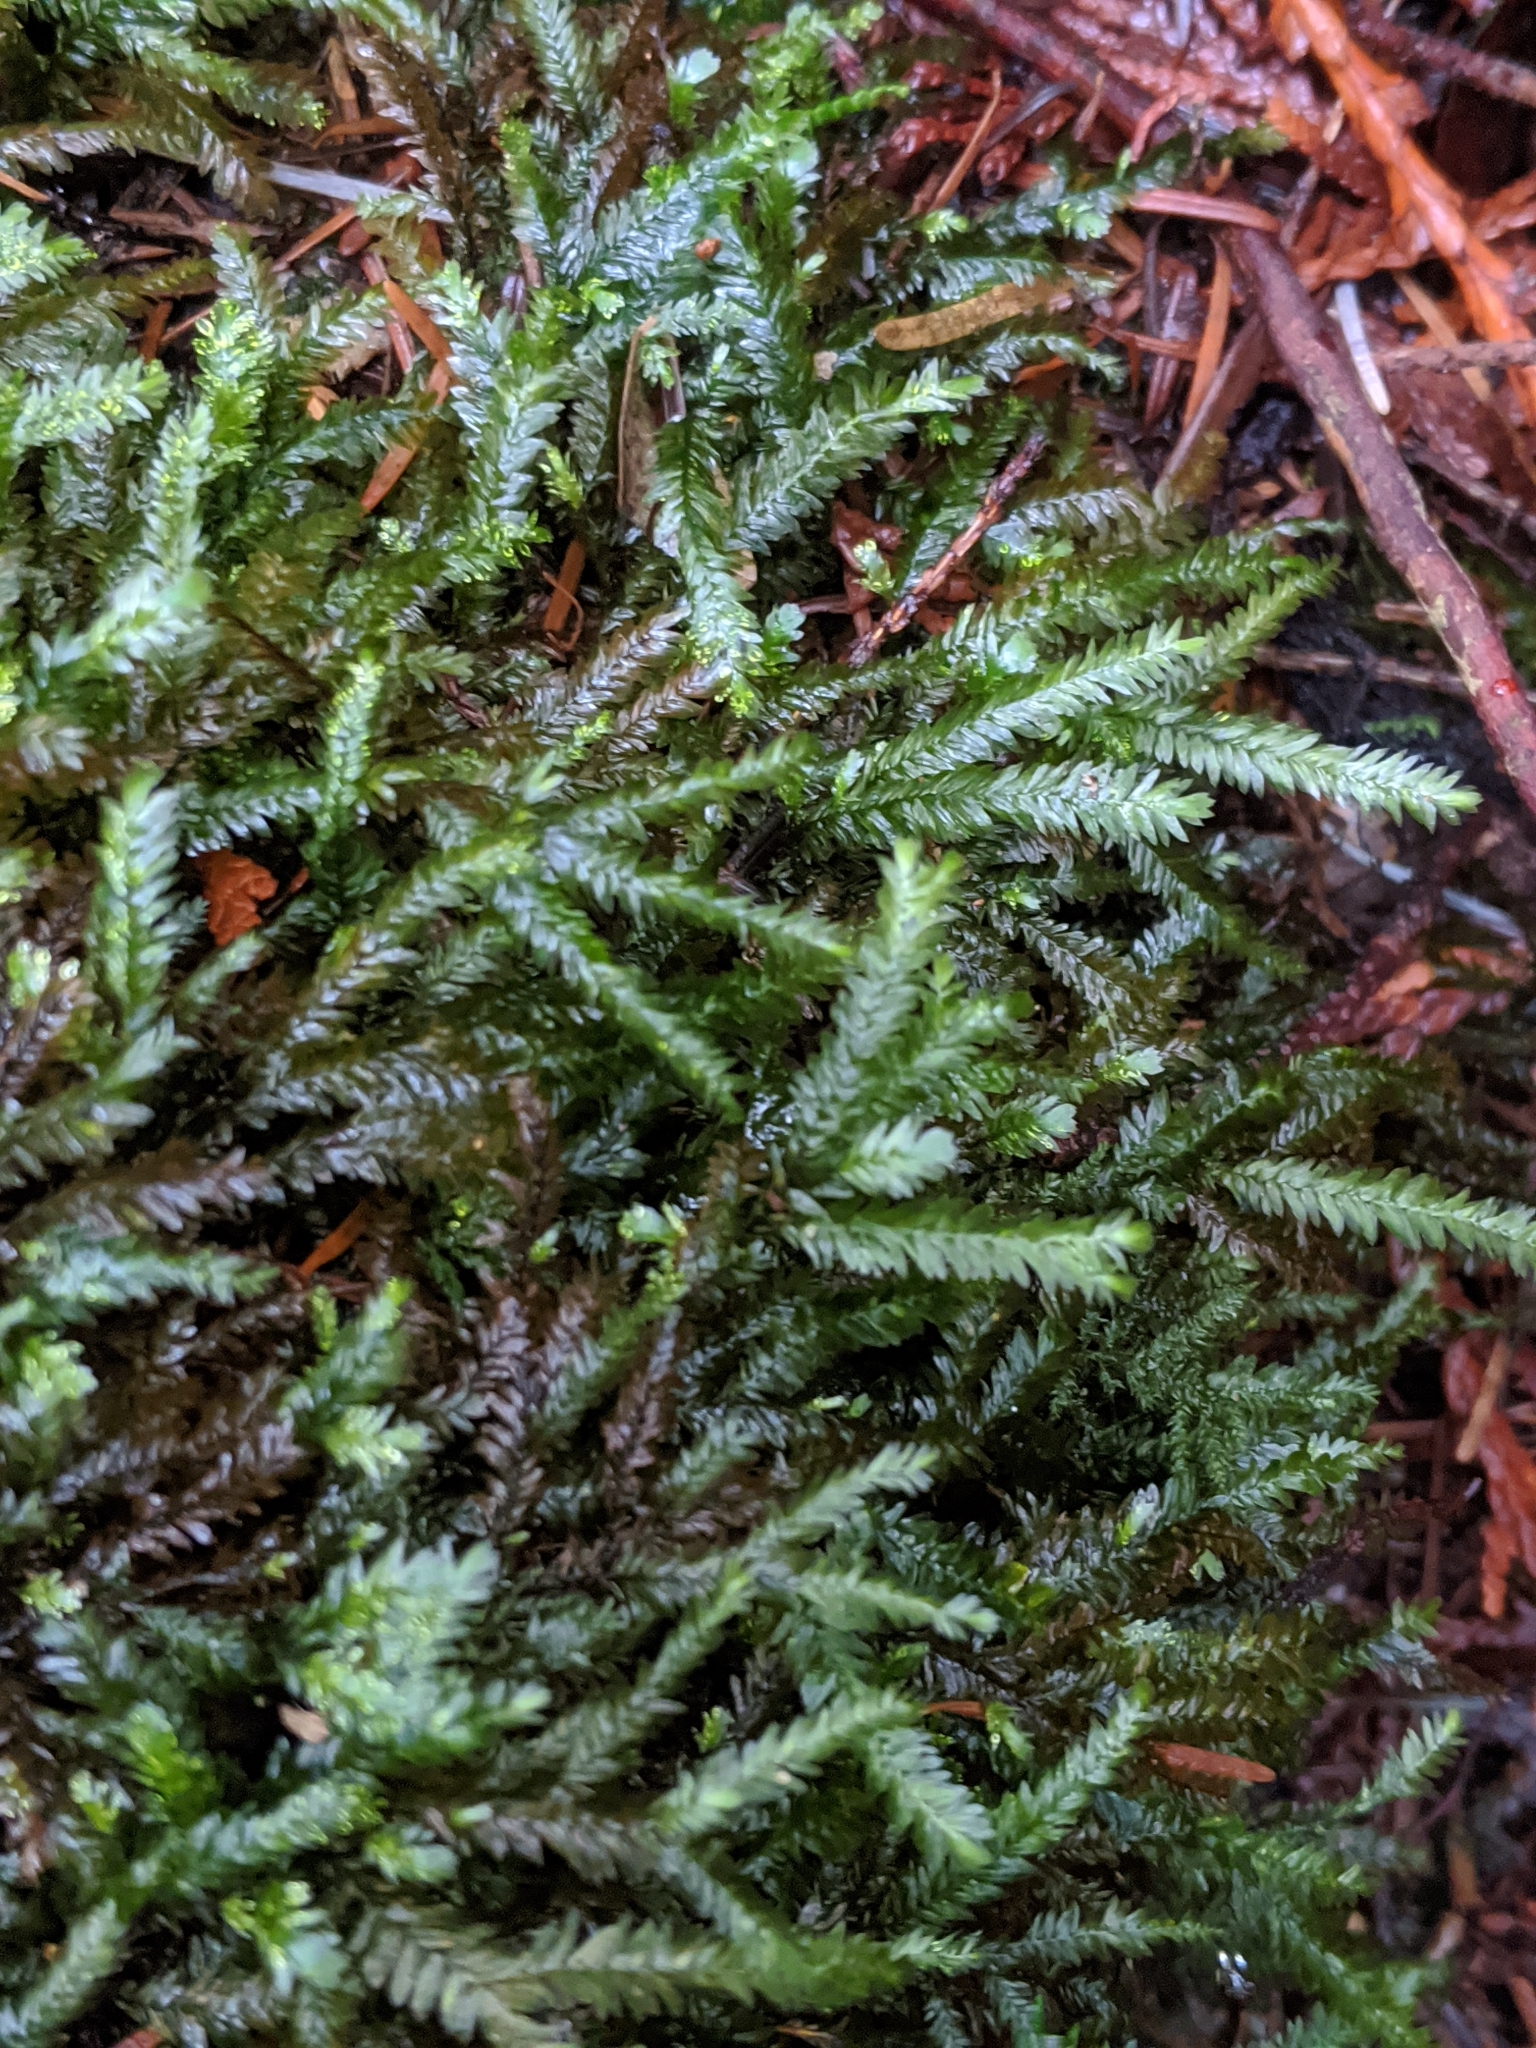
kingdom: Plantae
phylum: Bryophyta
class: Bryopsida
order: Hypnales
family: Neckeraceae
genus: Dannorrisia
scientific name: Dannorrisia bigelovii
